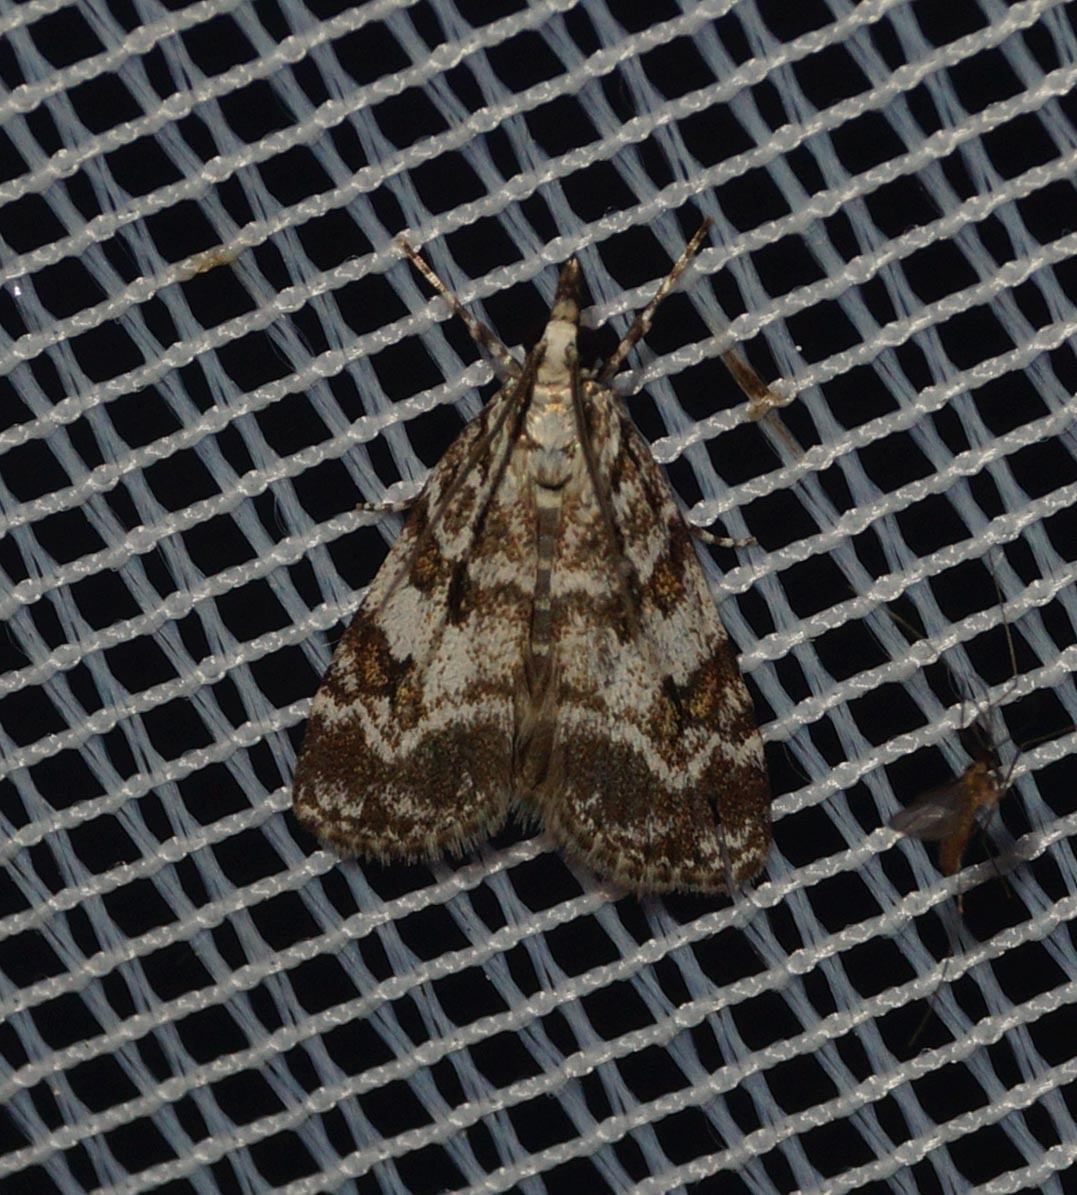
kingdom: Animalia
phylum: Arthropoda
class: Insecta
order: Lepidoptera
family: Crambidae
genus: Scoparia
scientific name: Scoparia pyralella
